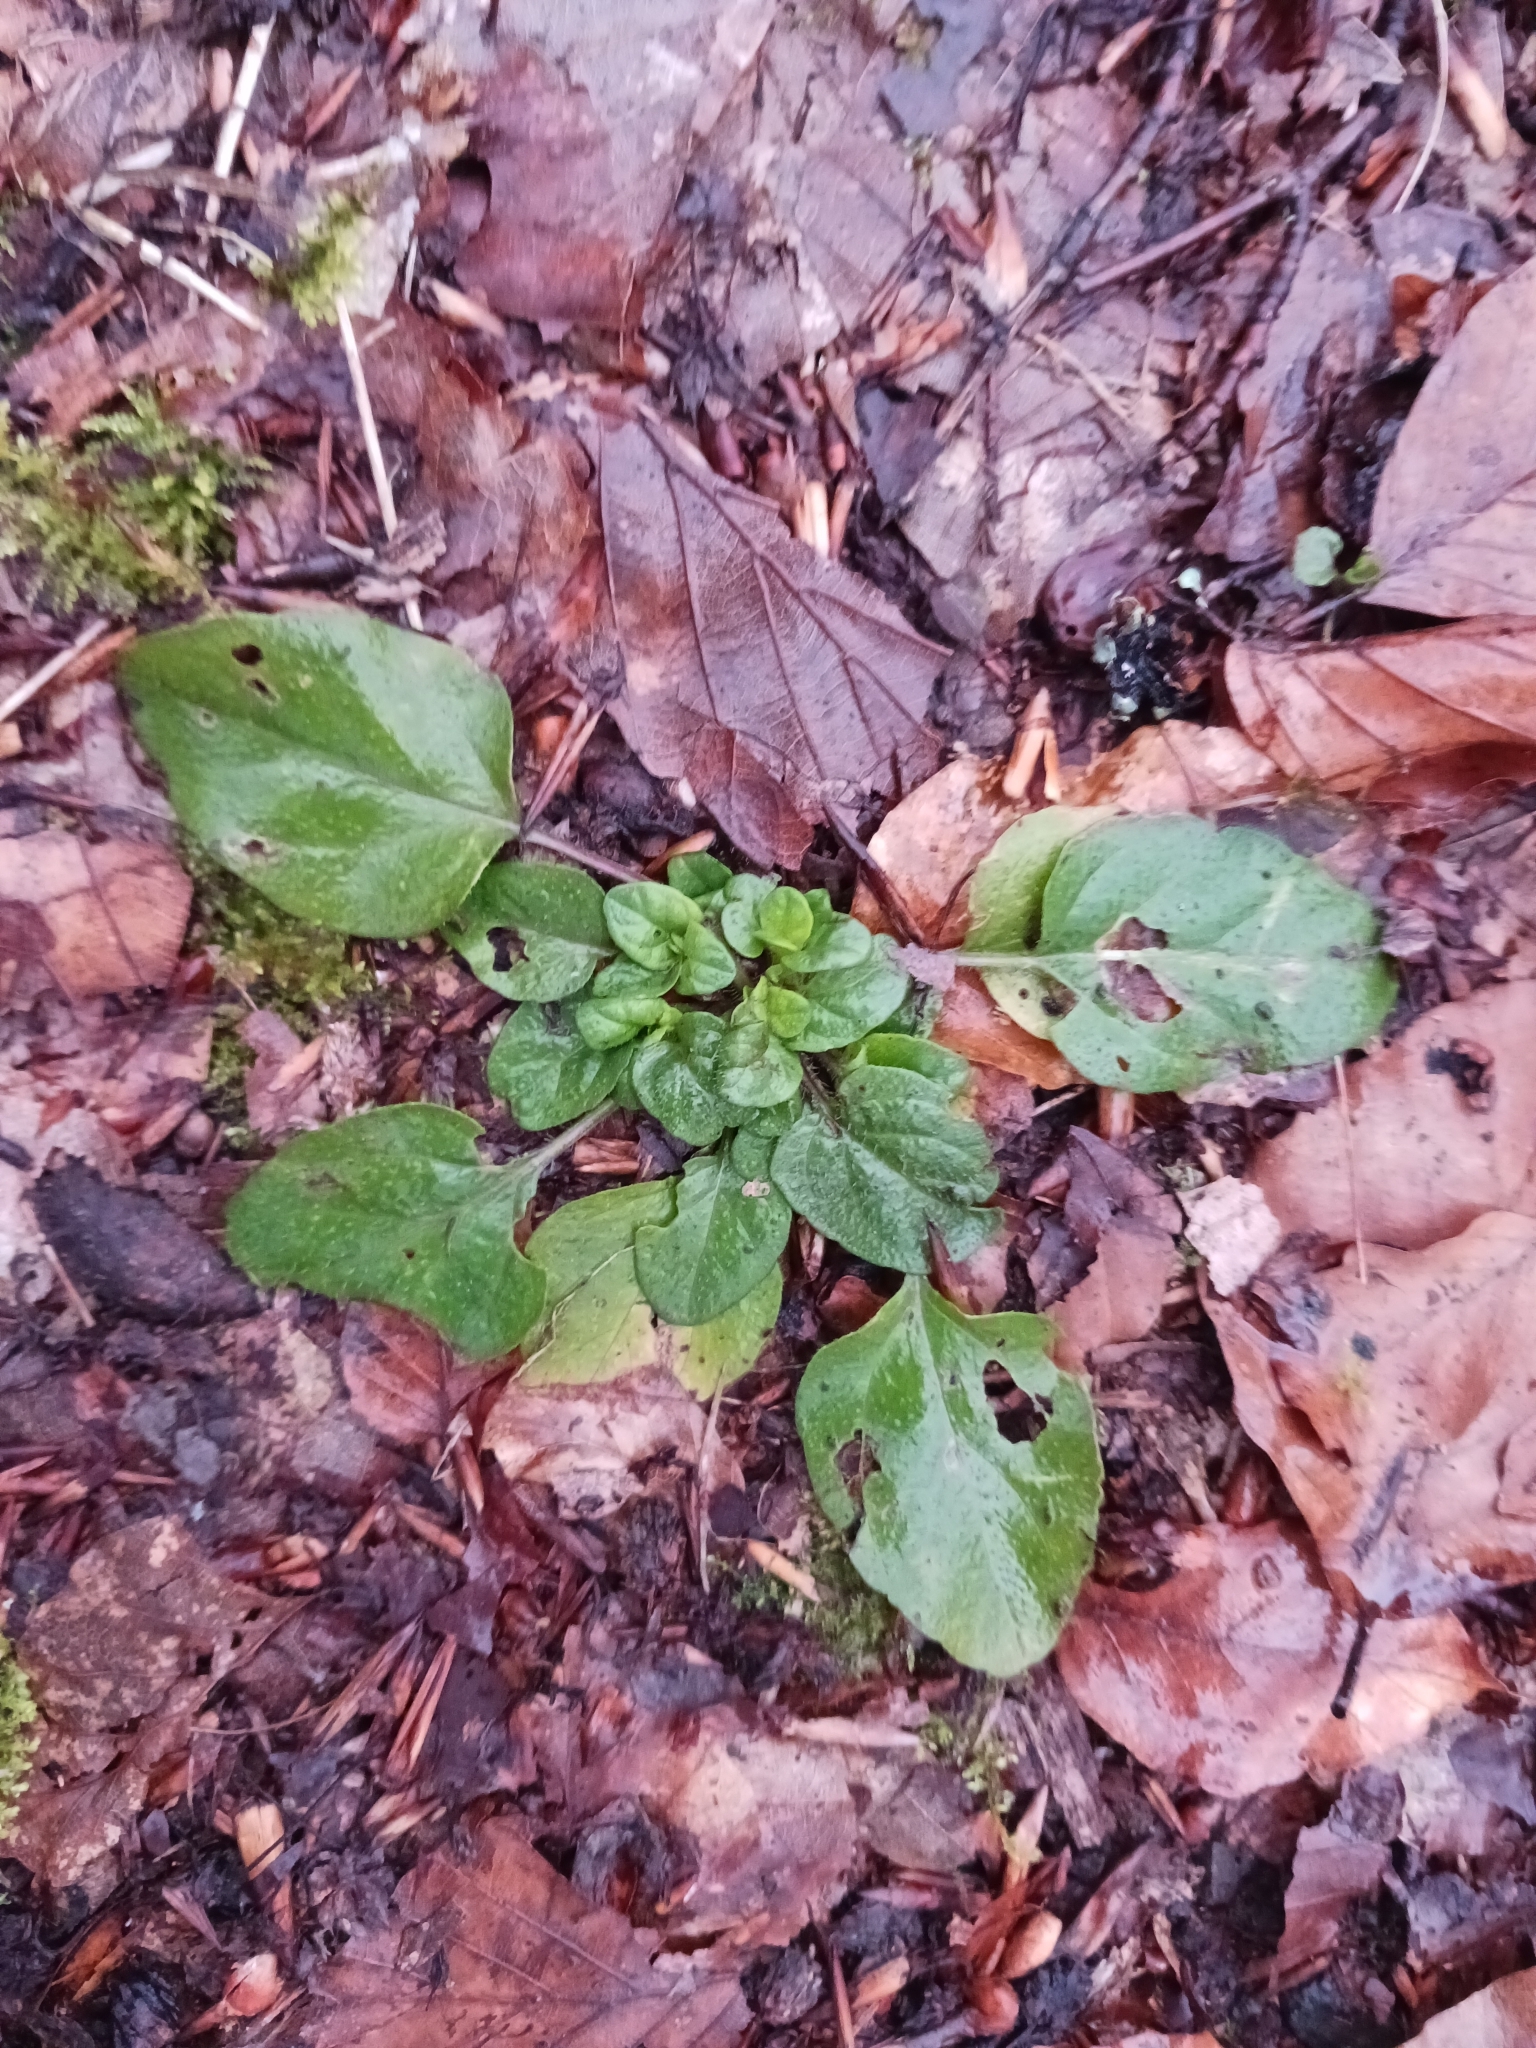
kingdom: Plantae
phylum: Tracheophyta
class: Magnoliopsida
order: Lamiales
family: Lamiaceae
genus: Prunella
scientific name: Prunella vulgaris
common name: Heal-all
